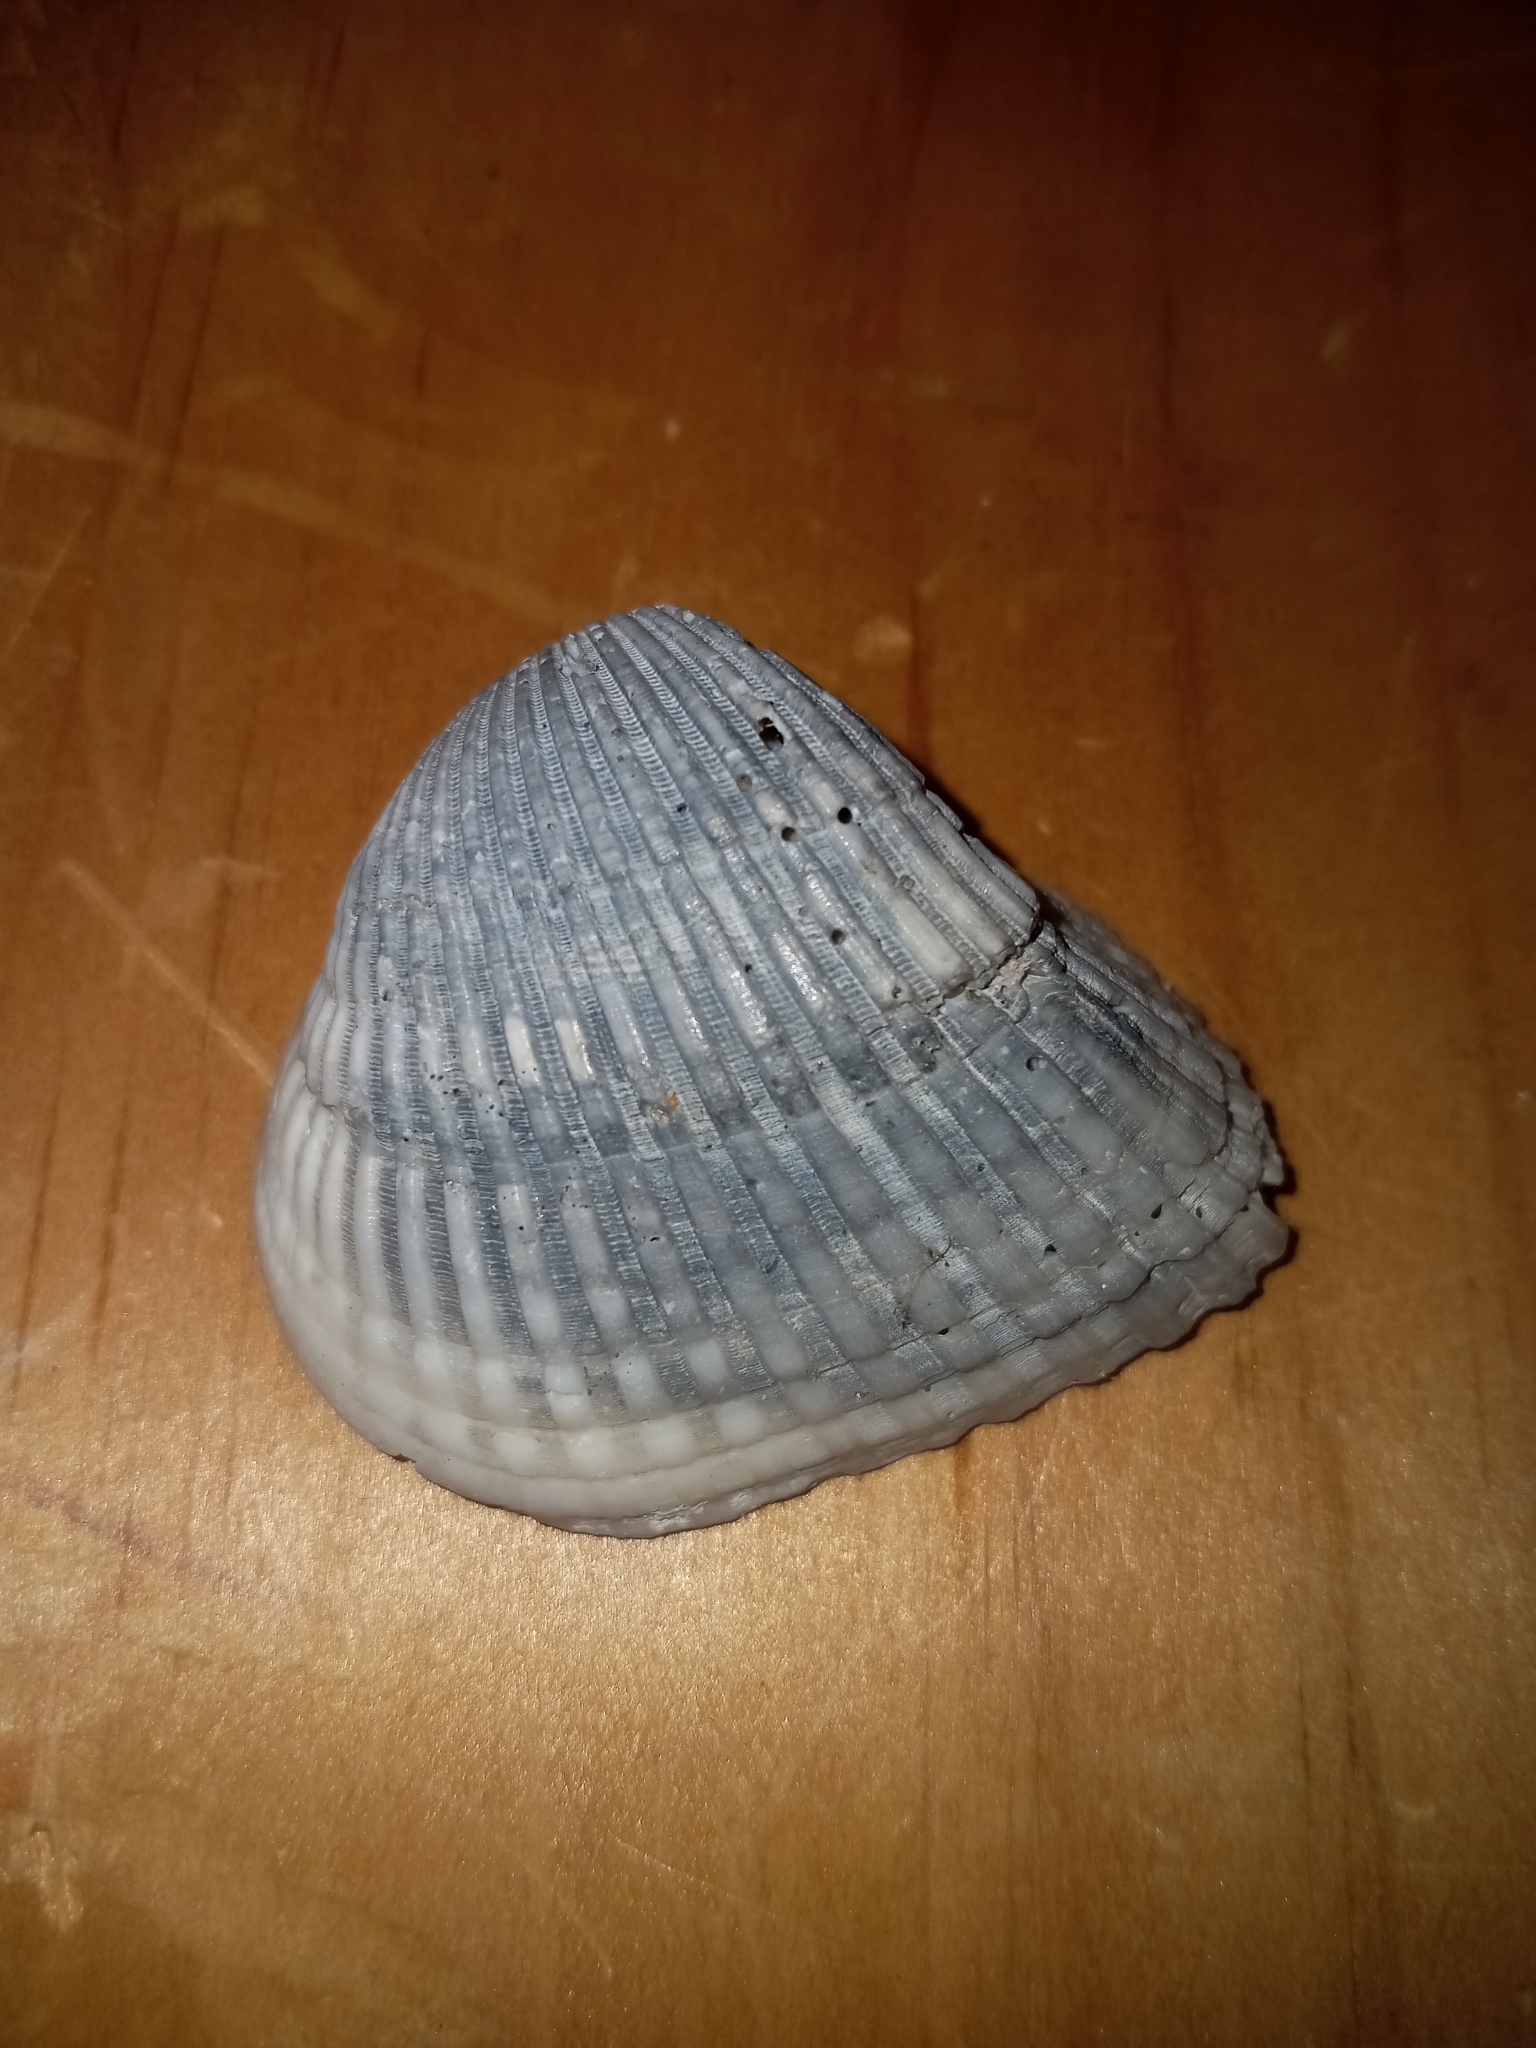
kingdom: Animalia
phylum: Mollusca
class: Bivalvia
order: Arcida
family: Noetiidae
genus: Noetia
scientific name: Noetia ponderosa
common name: Ponderous ark
